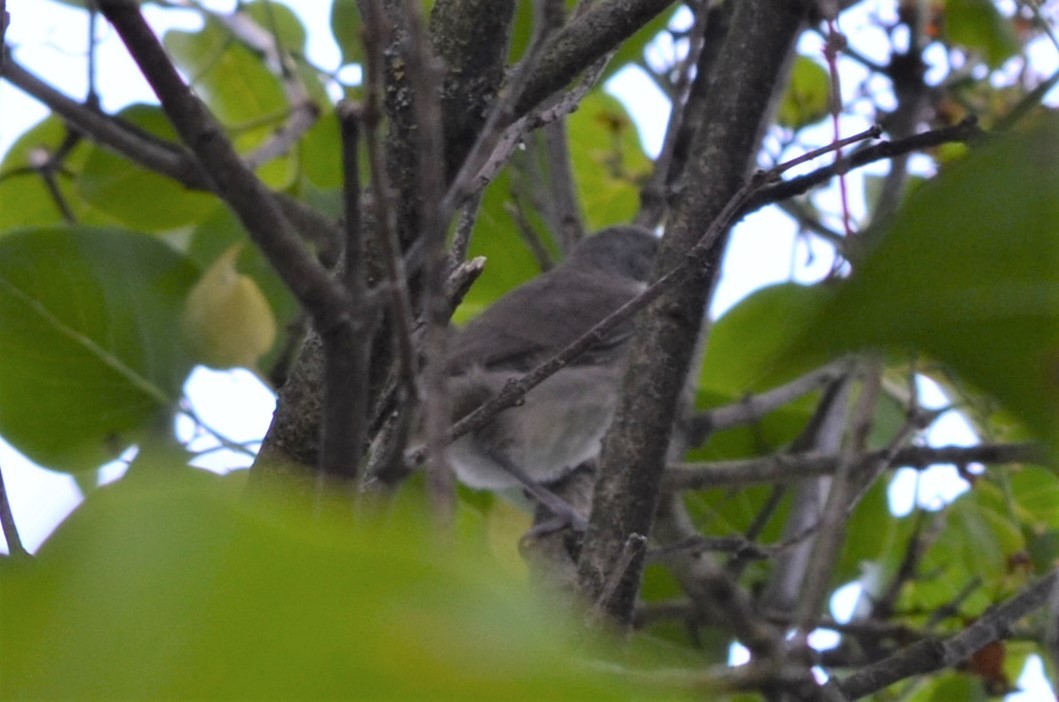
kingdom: Animalia
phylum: Chordata
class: Aves
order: Passeriformes
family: Sylviidae
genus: Sylvia
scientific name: Sylvia curruca
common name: Lesser whitethroat
